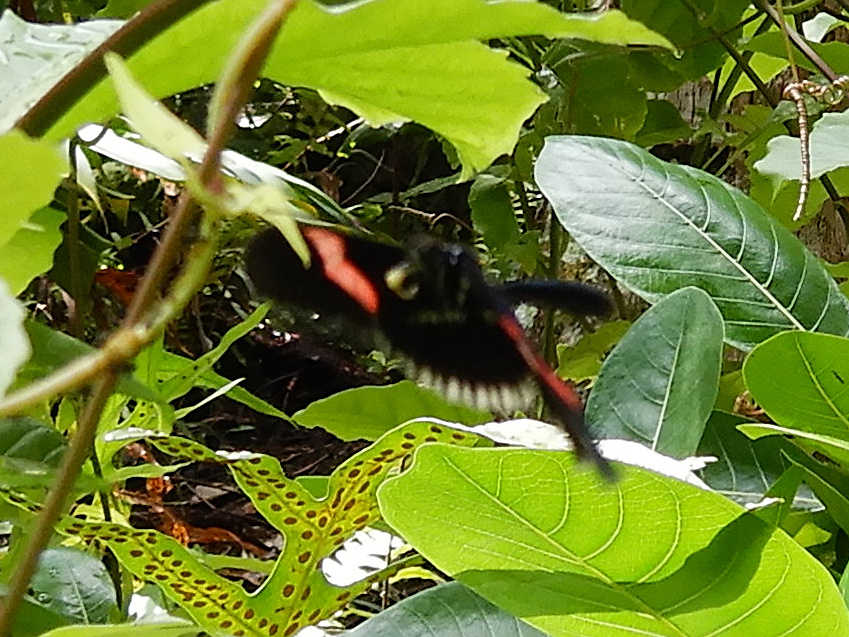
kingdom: Animalia
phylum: Arthropoda
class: Insecta
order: Lepidoptera
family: Nymphalidae
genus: Heliconius
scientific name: Heliconius erato
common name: Common patch longwing
